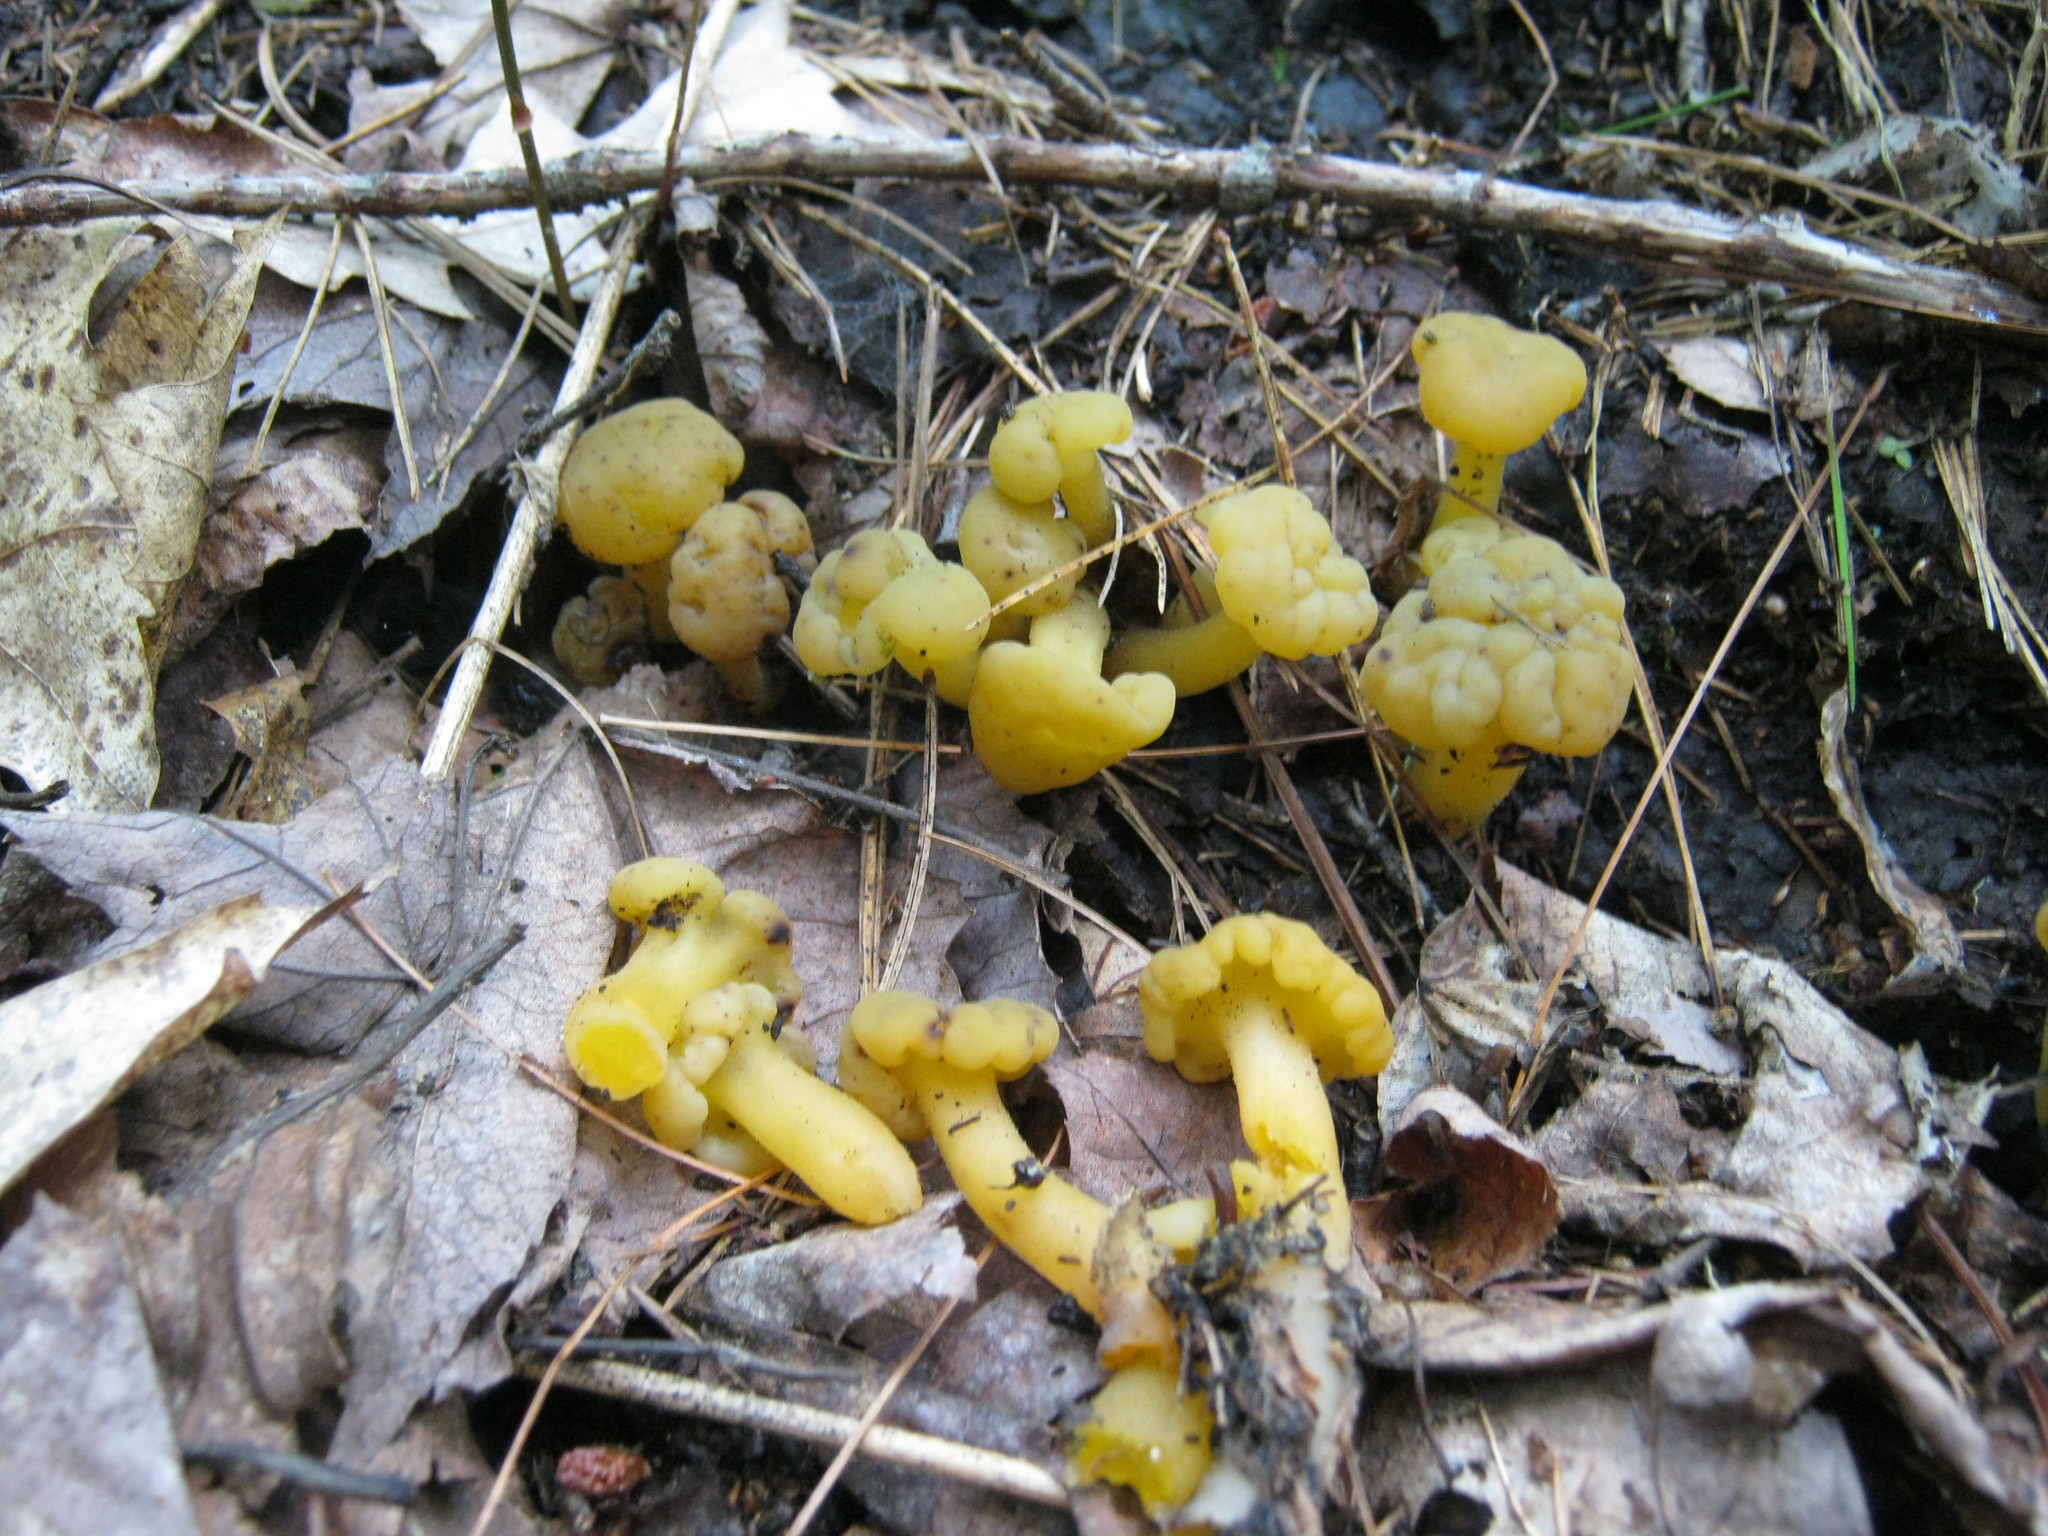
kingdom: Fungi
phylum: Ascomycota
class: Leotiomycetes
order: Leotiales
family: Leotiaceae
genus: Leotia
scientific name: Leotia lubrica
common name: Jellybaby
